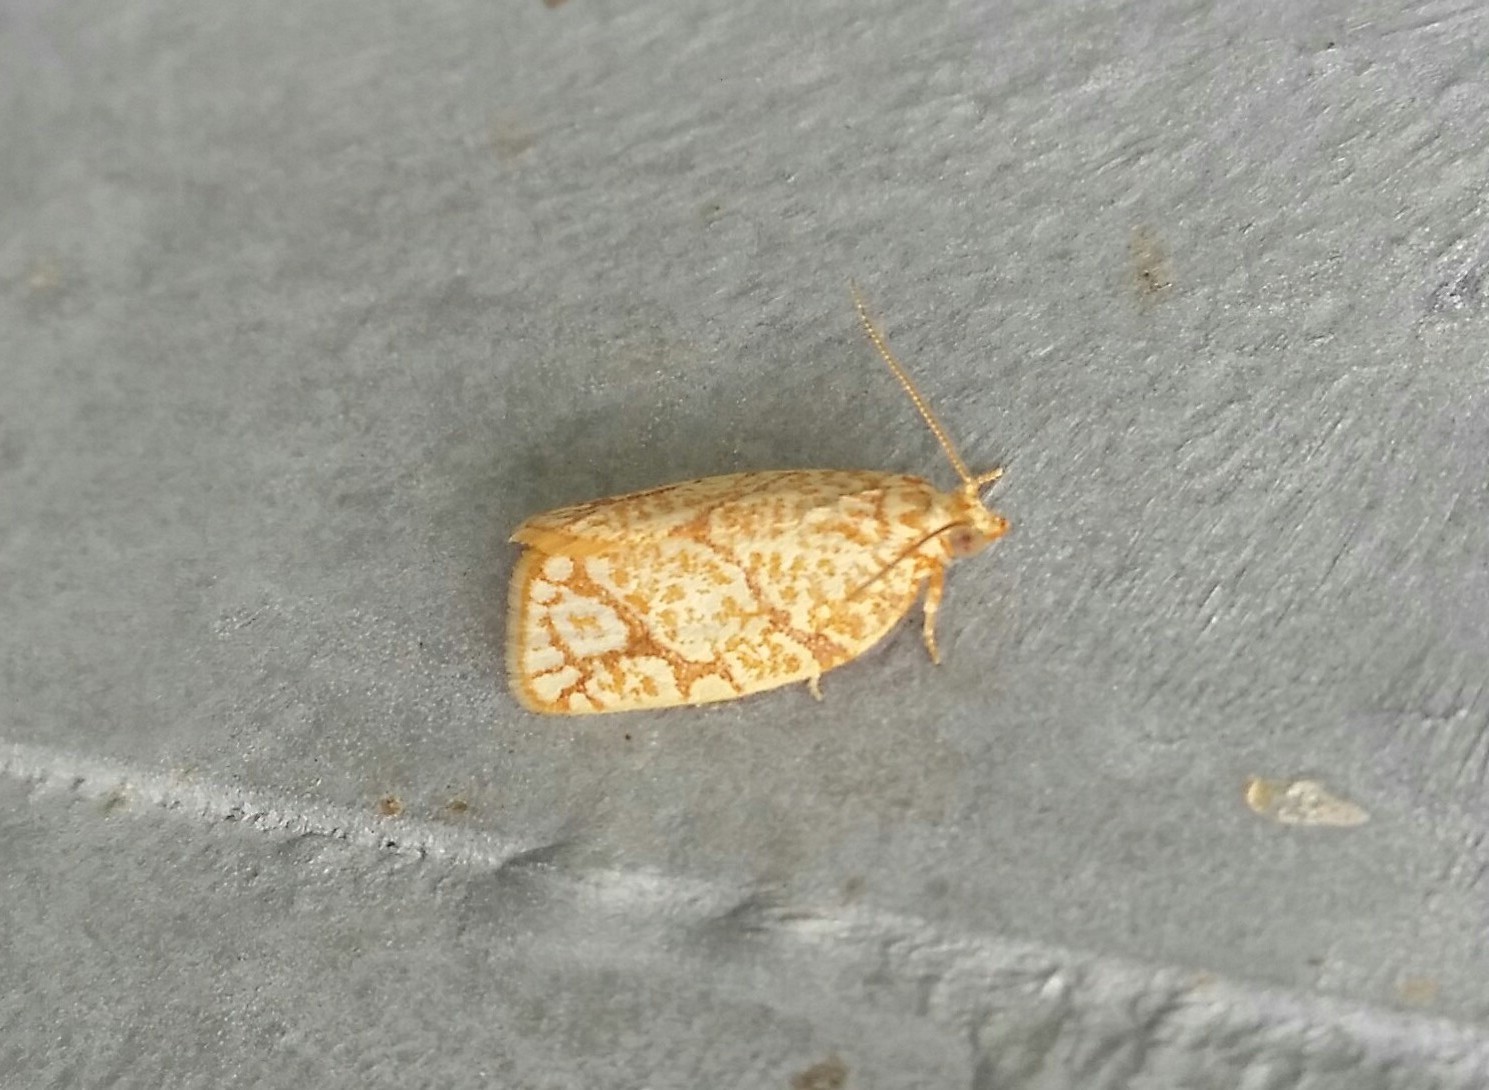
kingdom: Animalia
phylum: Arthropoda
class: Insecta
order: Lepidoptera
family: Tortricidae
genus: Argyrotaenia
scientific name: Argyrotaenia quercifoliana
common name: Yellow-winged oak leafroller moth
